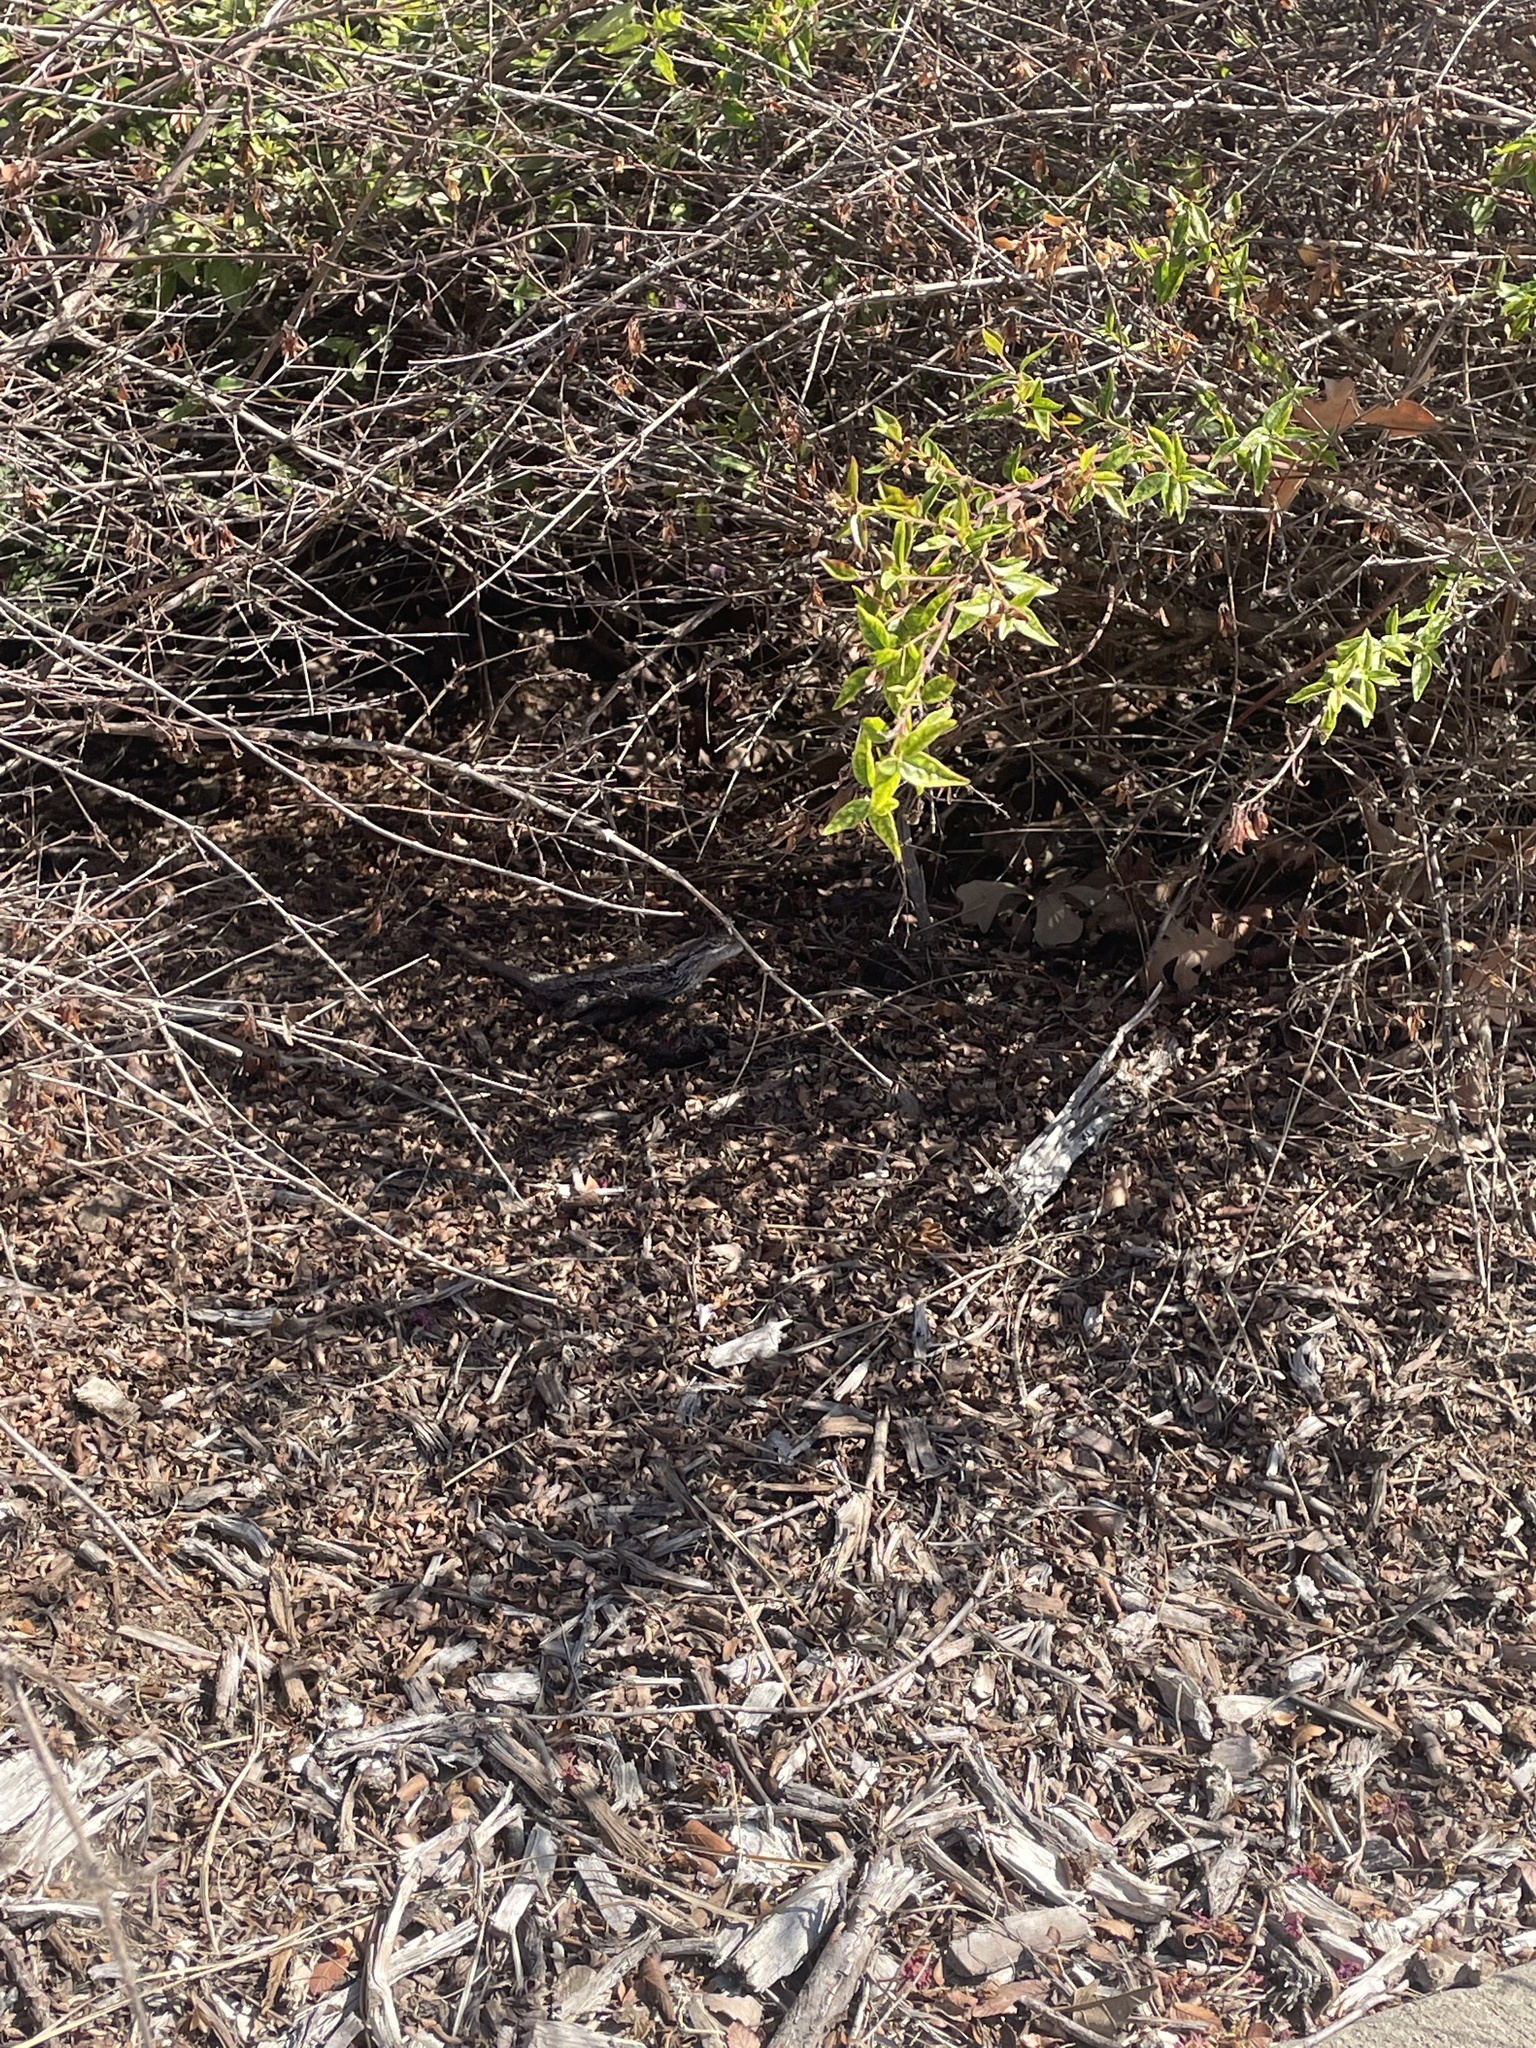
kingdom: Animalia
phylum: Chordata
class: Squamata
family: Phrynosomatidae
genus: Sceloporus
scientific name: Sceloporus olivaceus
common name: Texas spiny lizard
